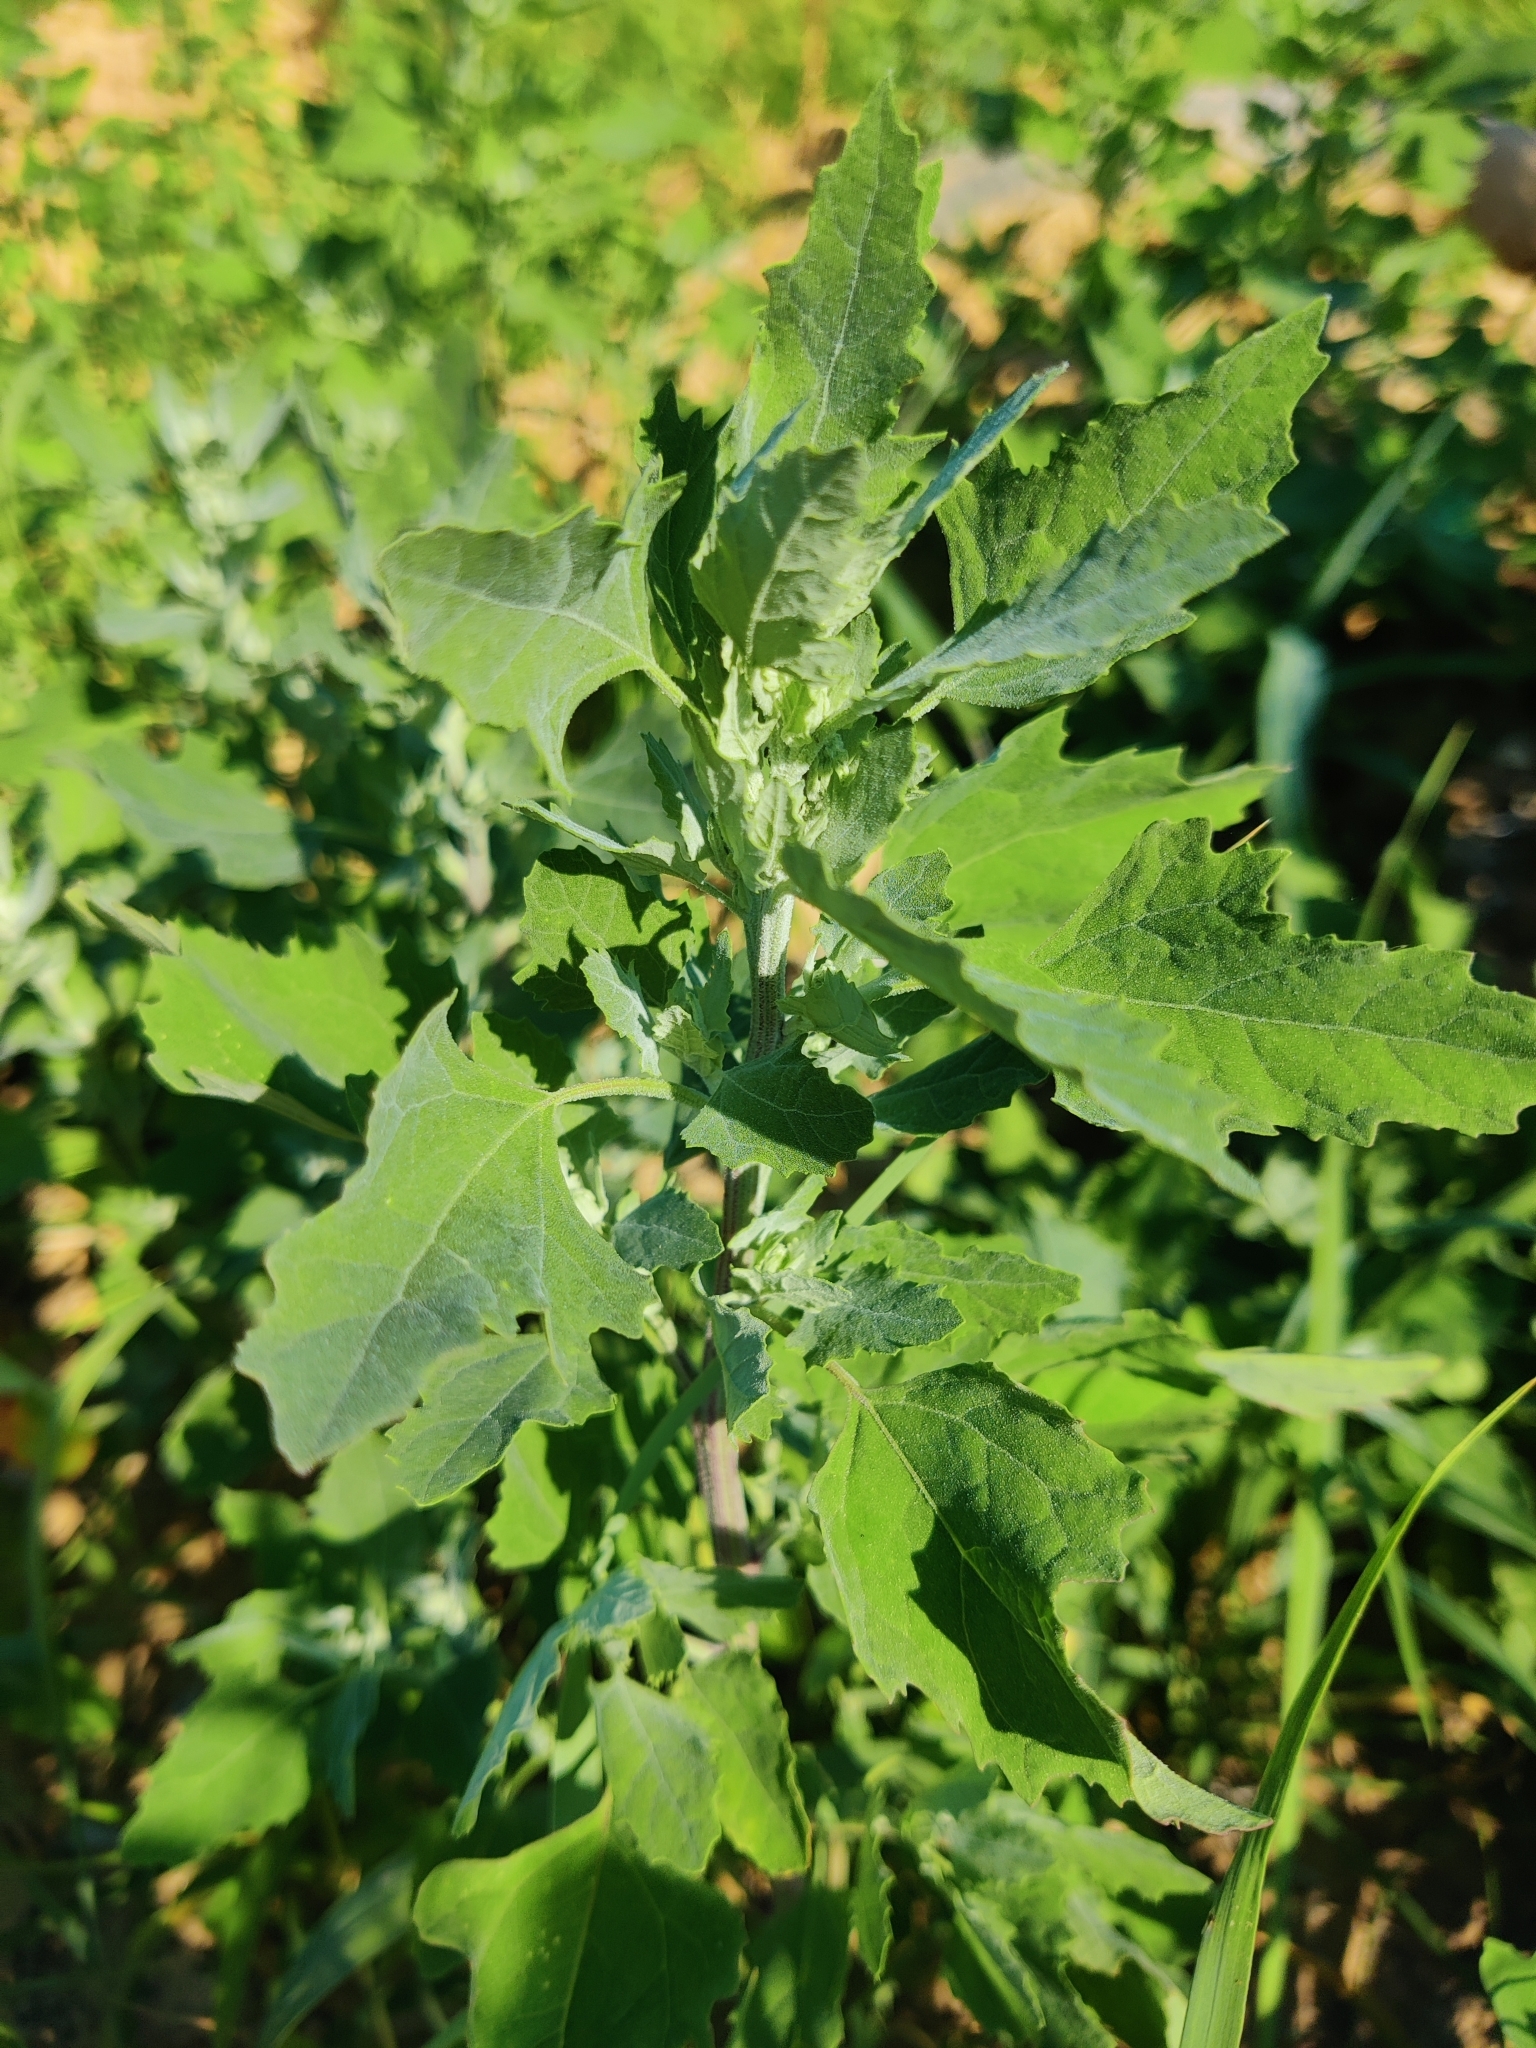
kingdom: Plantae
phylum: Tracheophyta
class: Magnoliopsida
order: Caryophyllales
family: Amaranthaceae
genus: Chenopodium
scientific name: Chenopodium album
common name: Fat-hen
